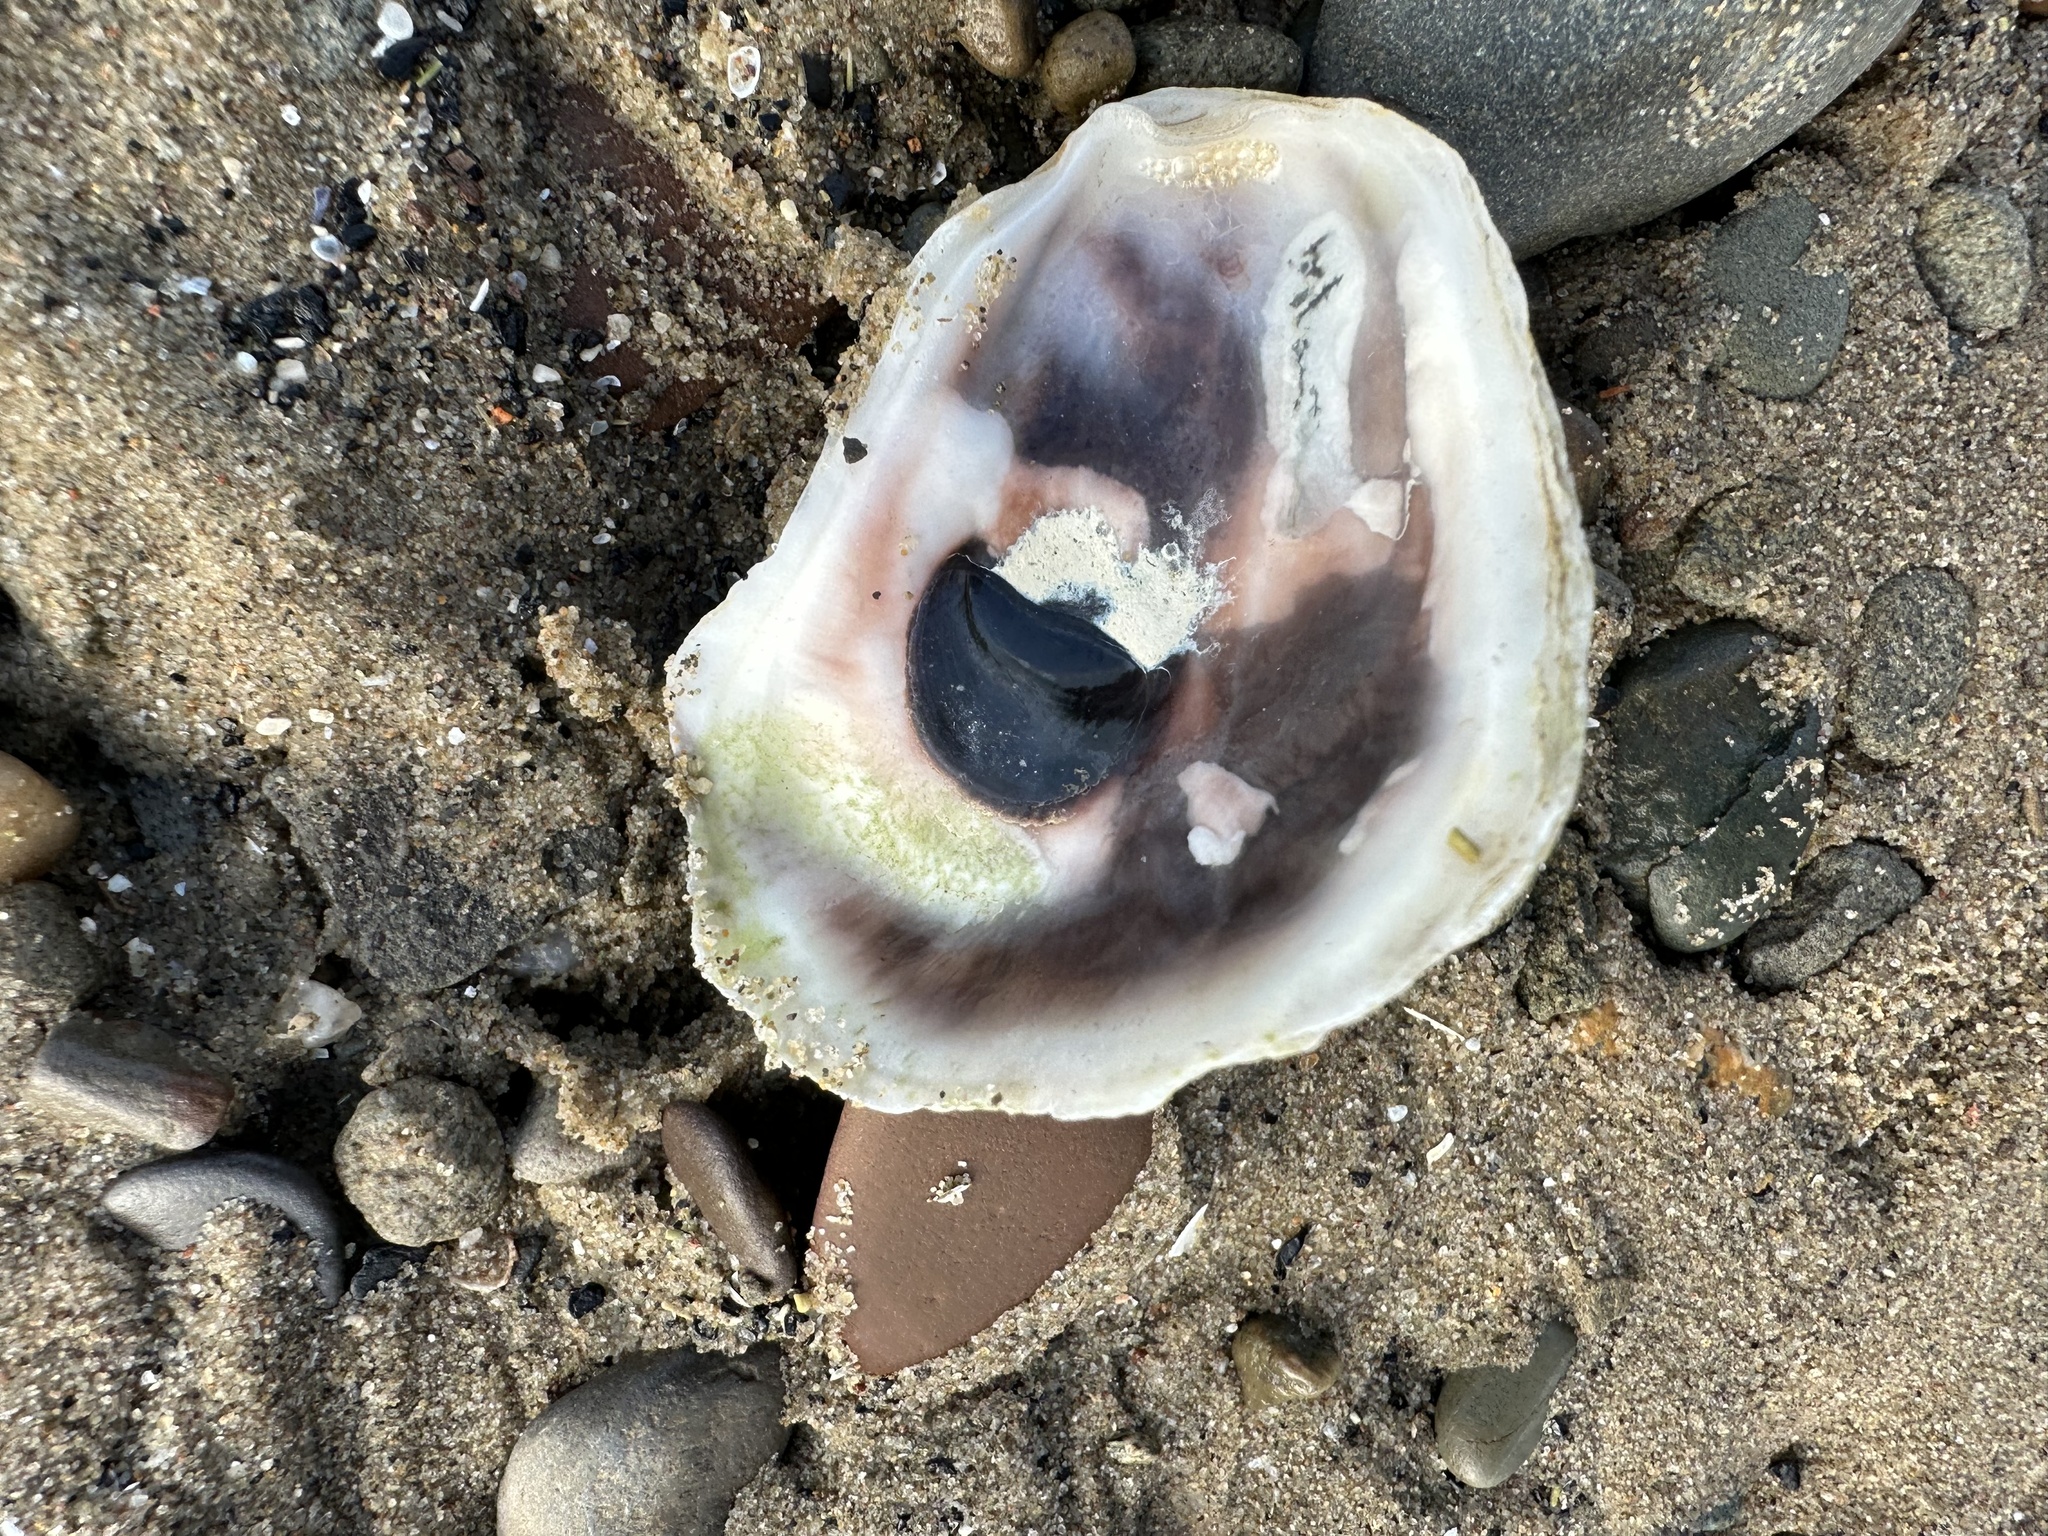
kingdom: Animalia
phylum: Mollusca
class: Bivalvia
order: Ostreida
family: Ostreidae
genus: Crassostrea
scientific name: Crassostrea virginica
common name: American oyster
